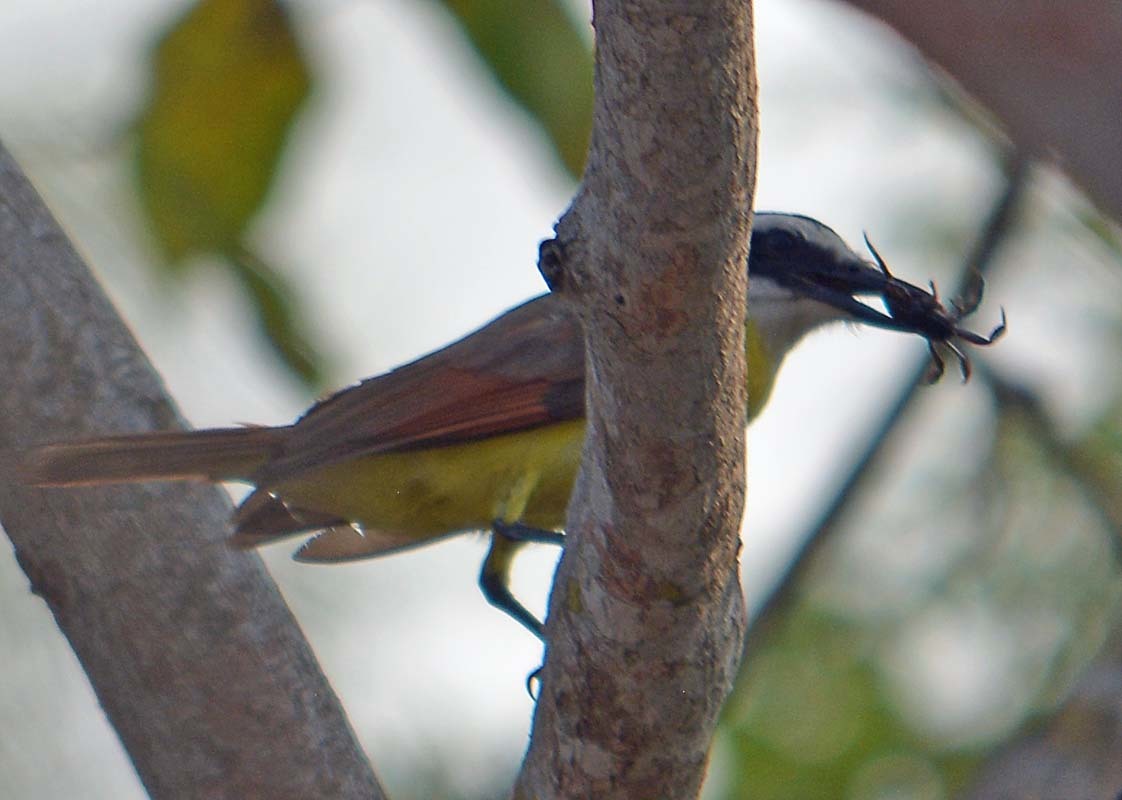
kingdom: Animalia
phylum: Chordata
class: Aves
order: Passeriformes
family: Tyrannidae
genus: Pitangus
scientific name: Pitangus sulphuratus
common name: Great kiskadee
